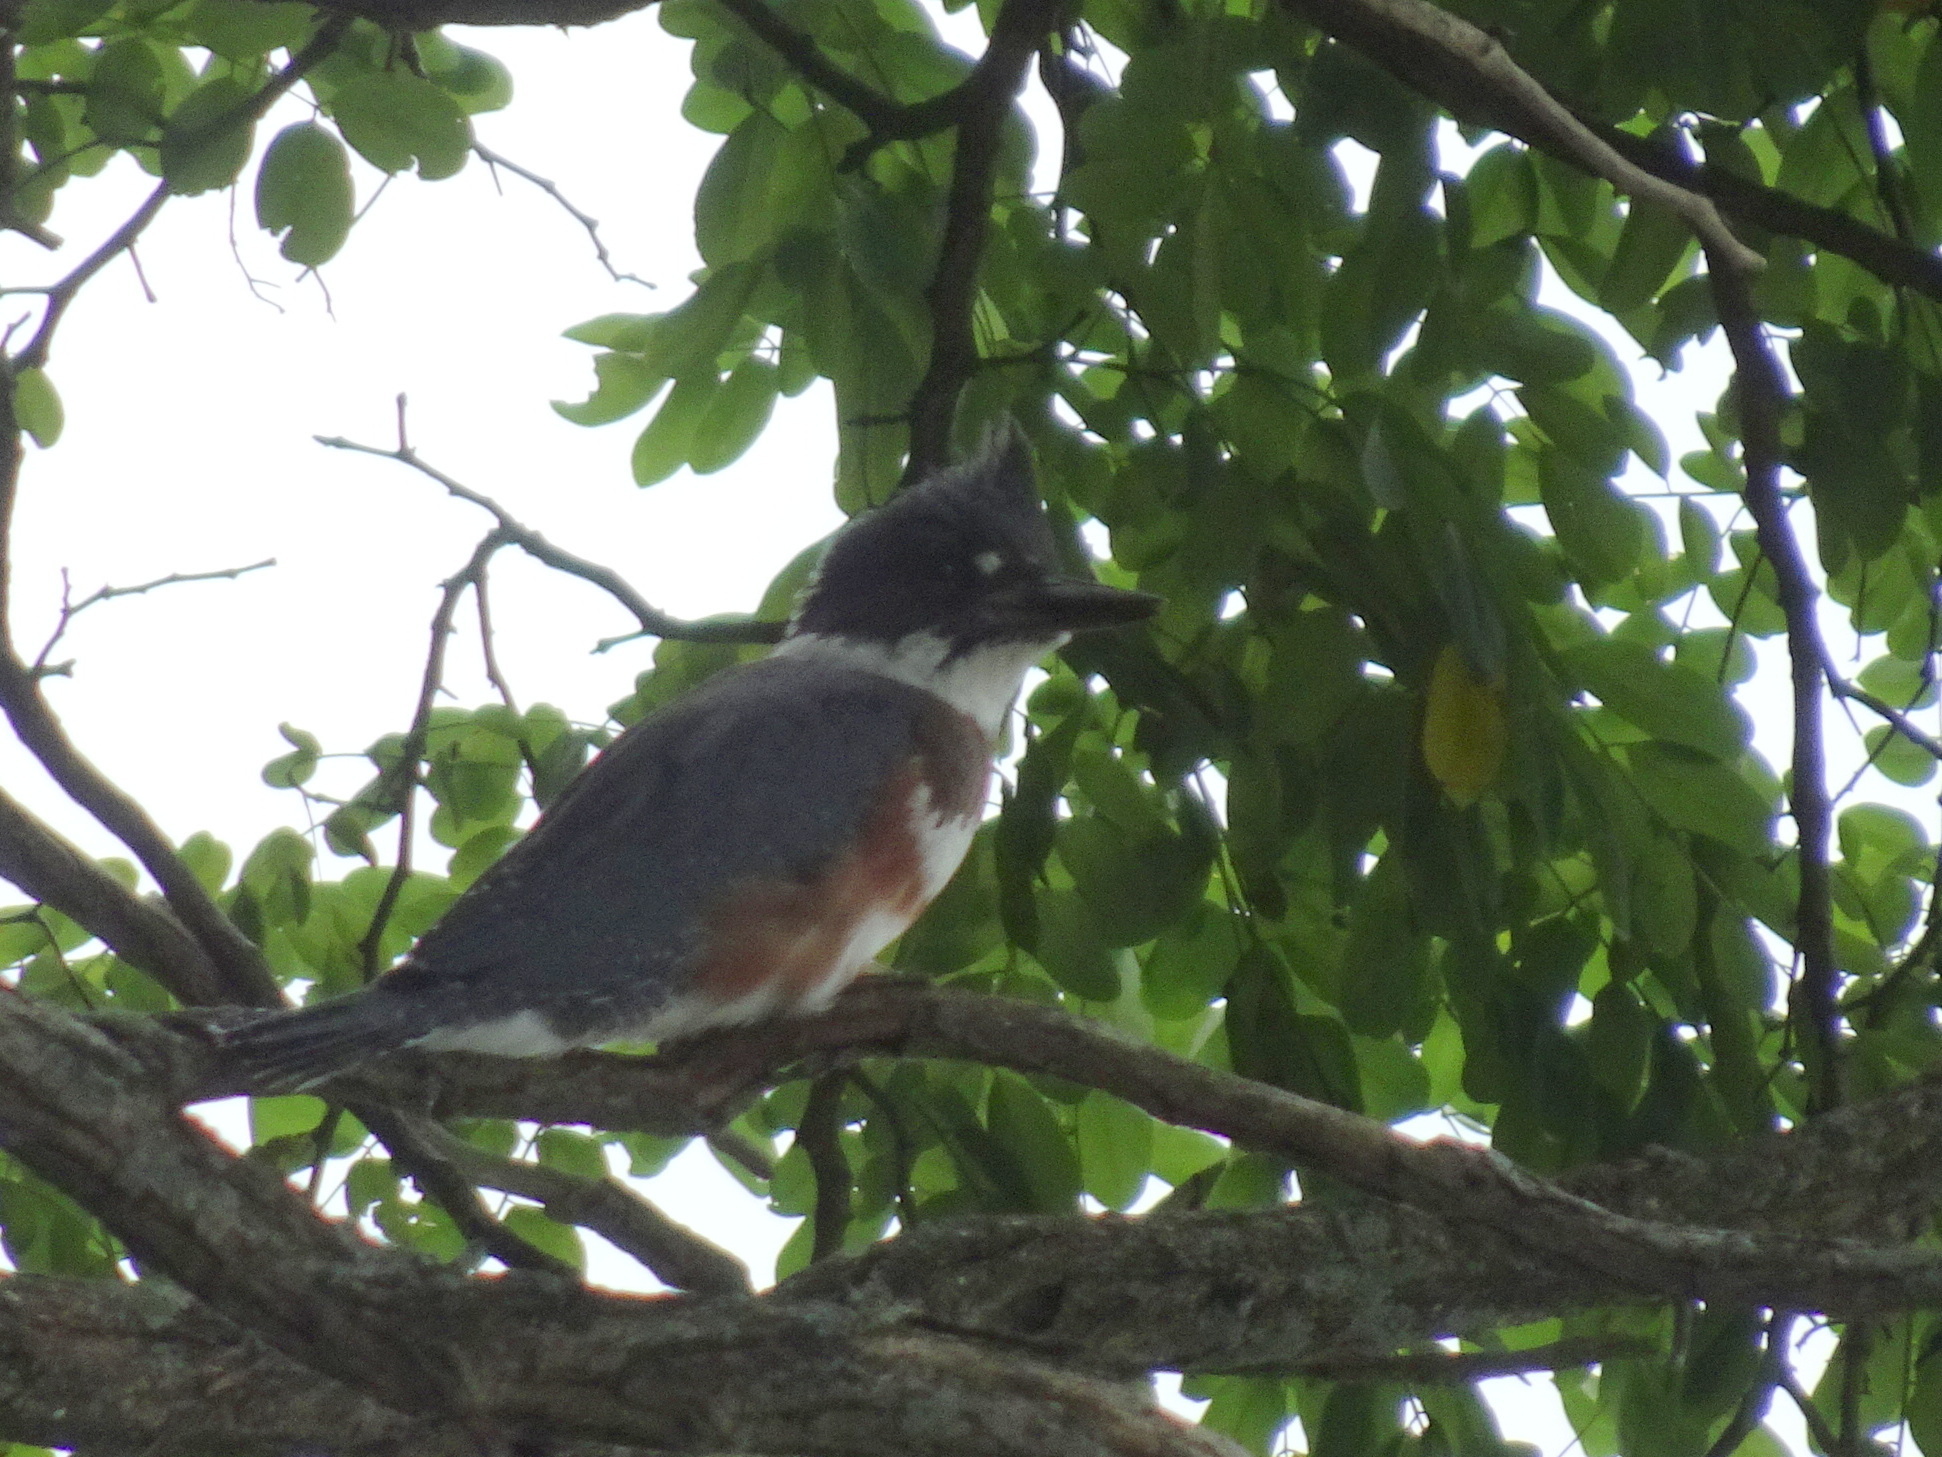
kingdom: Animalia
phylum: Chordata
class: Aves
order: Coraciiformes
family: Alcedinidae
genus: Megaceryle
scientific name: Megaceryle alcyon
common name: Belted kingfisher
